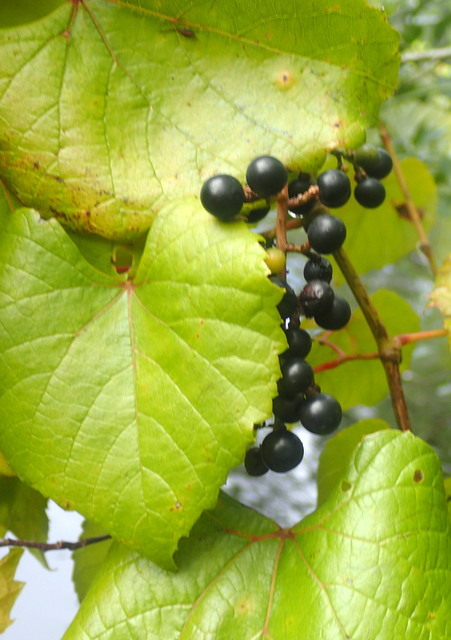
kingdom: Plantae
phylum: Tracheophyta
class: Magnoliopsida
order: Vitales
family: Vitaceae
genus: Vitis
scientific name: Vitis rotundifolia
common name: Muscadine grape
